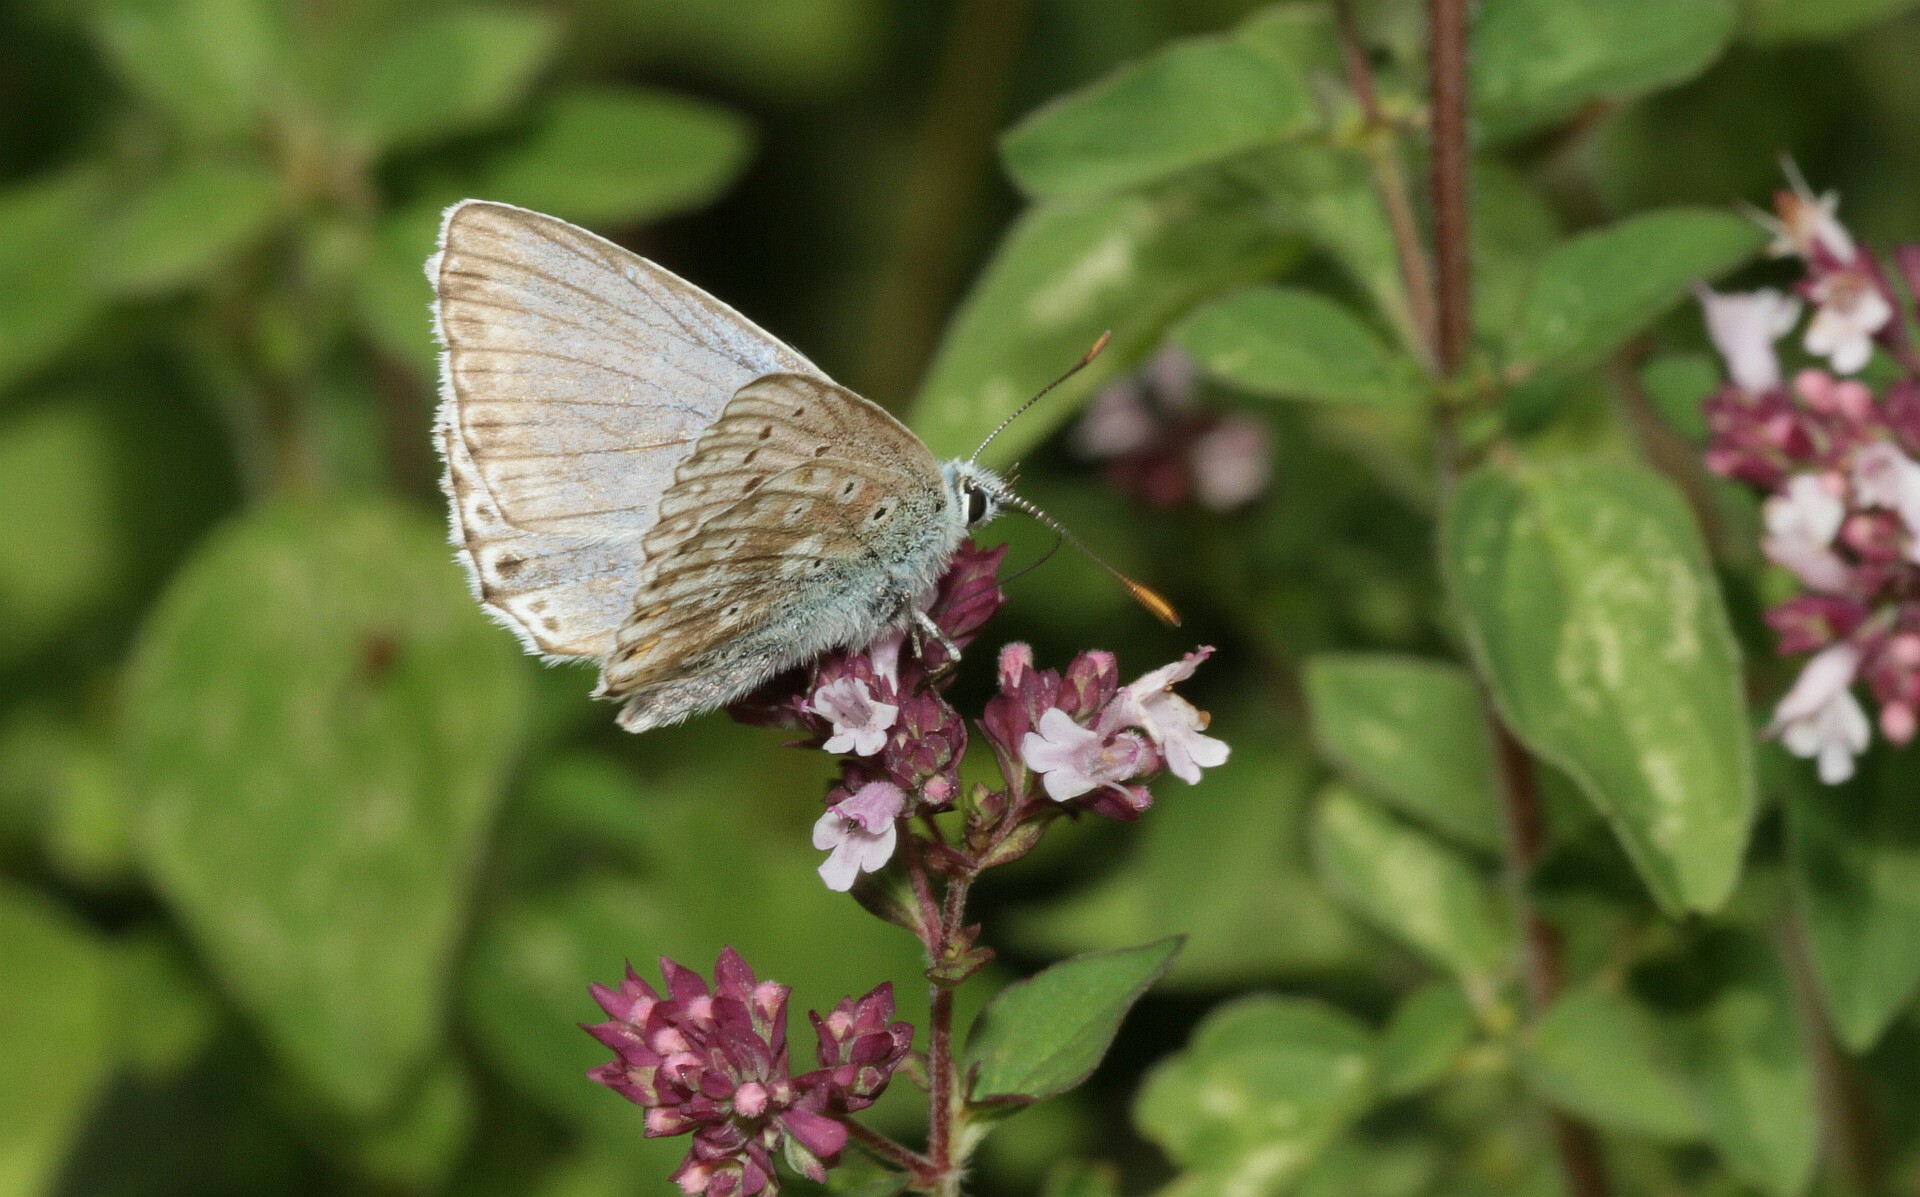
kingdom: Animalia
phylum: Arthropoda
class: Insecta
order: Lepidoptera
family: Lycaenidae
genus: Lysandra
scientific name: Lysandra coridon
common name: Chalkhill blue
